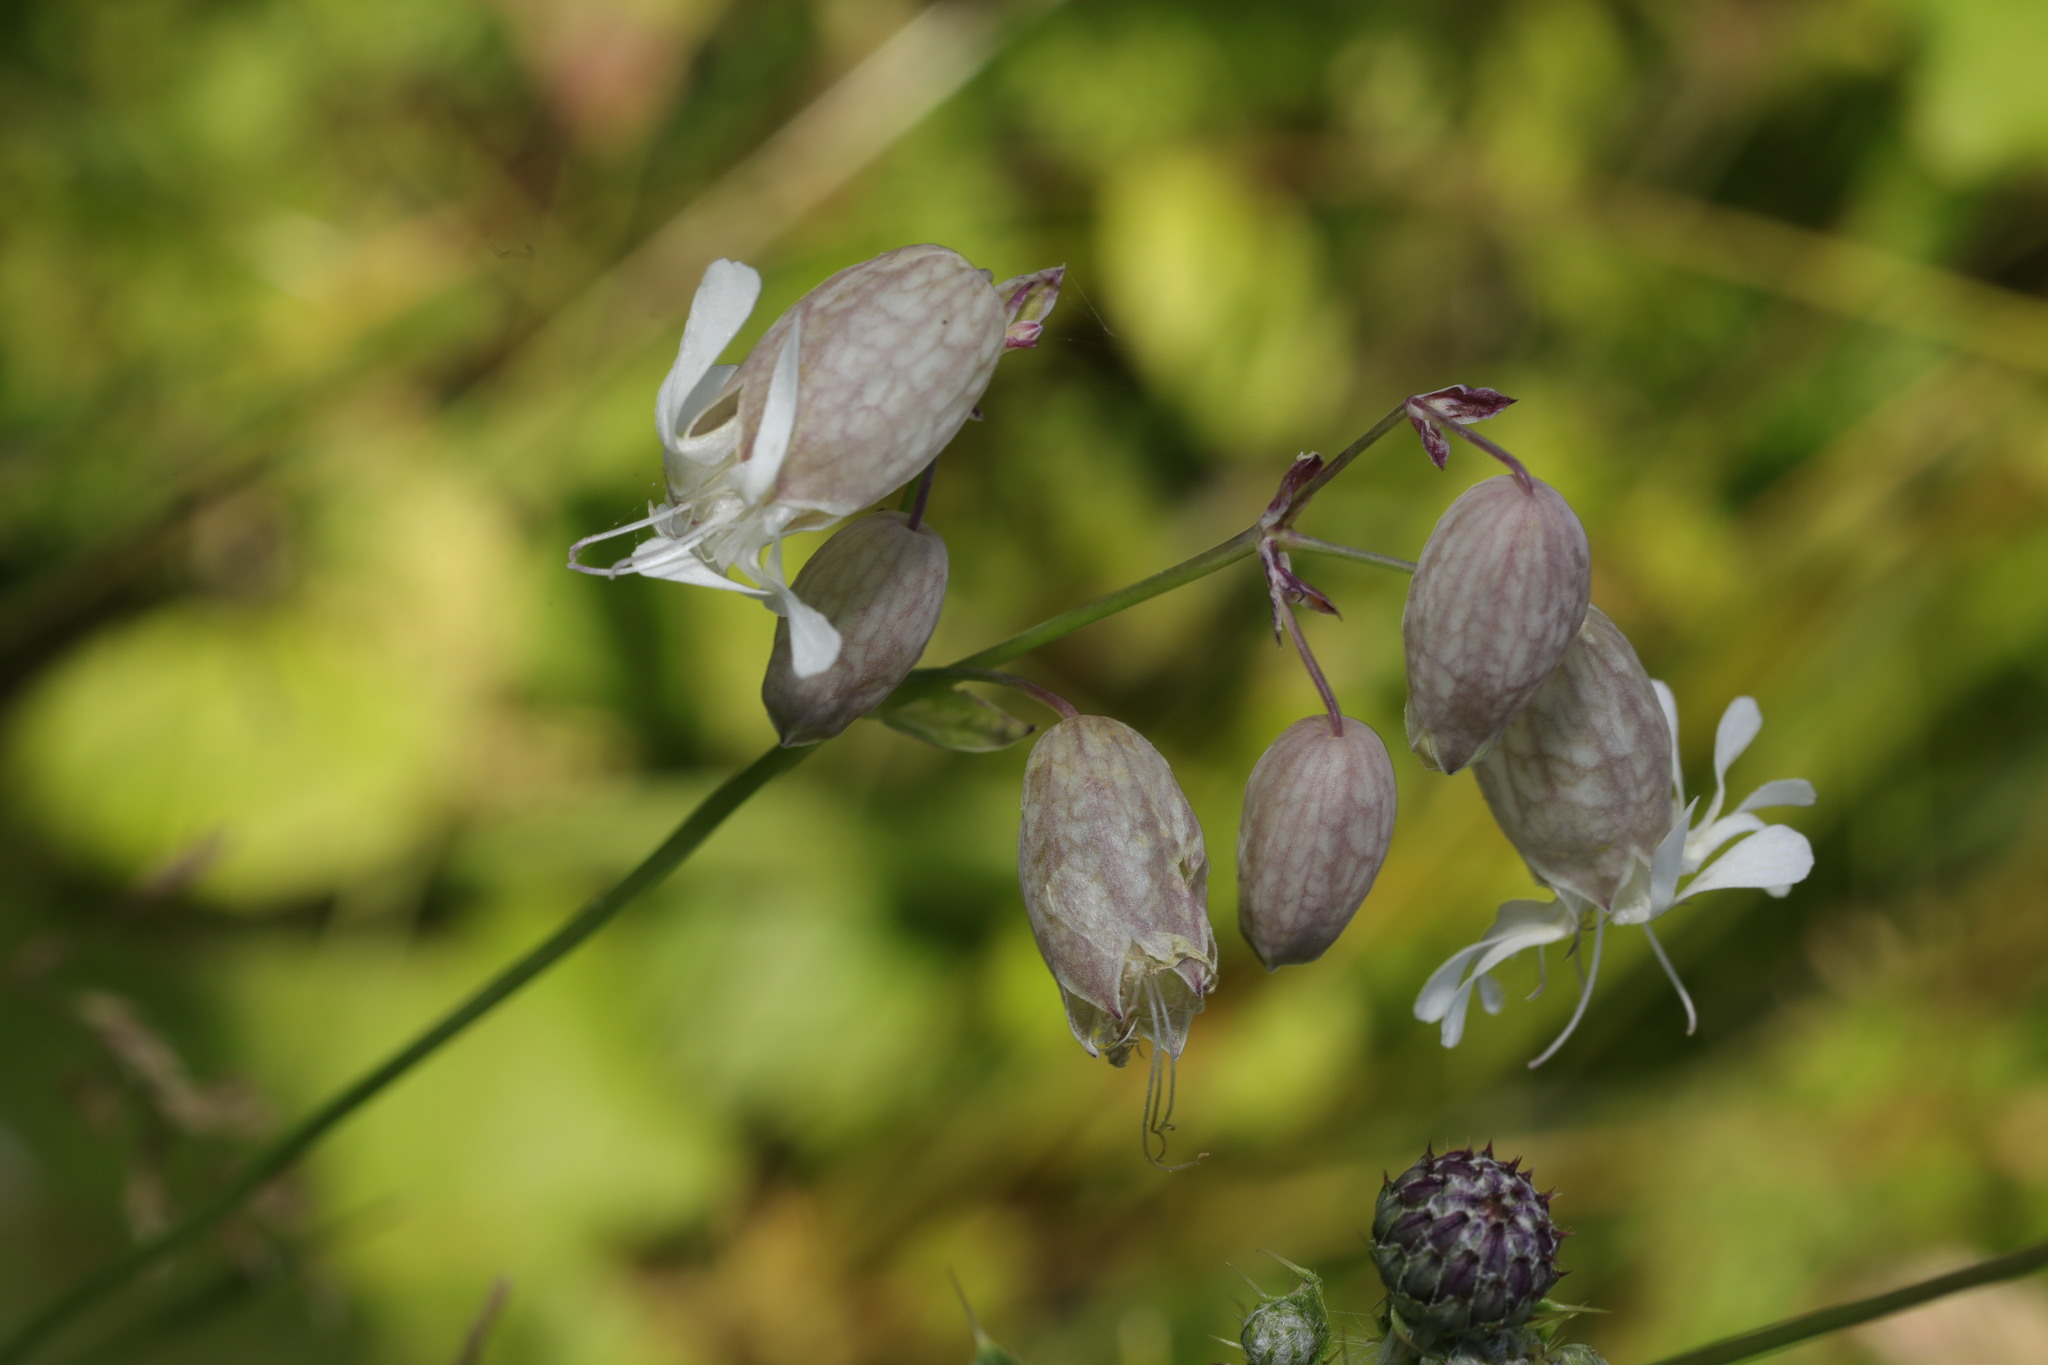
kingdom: Plantae
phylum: Tracheophyta
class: Magnoliopsida
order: Caryophyllales
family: Caryophyllaceae
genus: Silene
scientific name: Silene vulgaris
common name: Bladder campion
